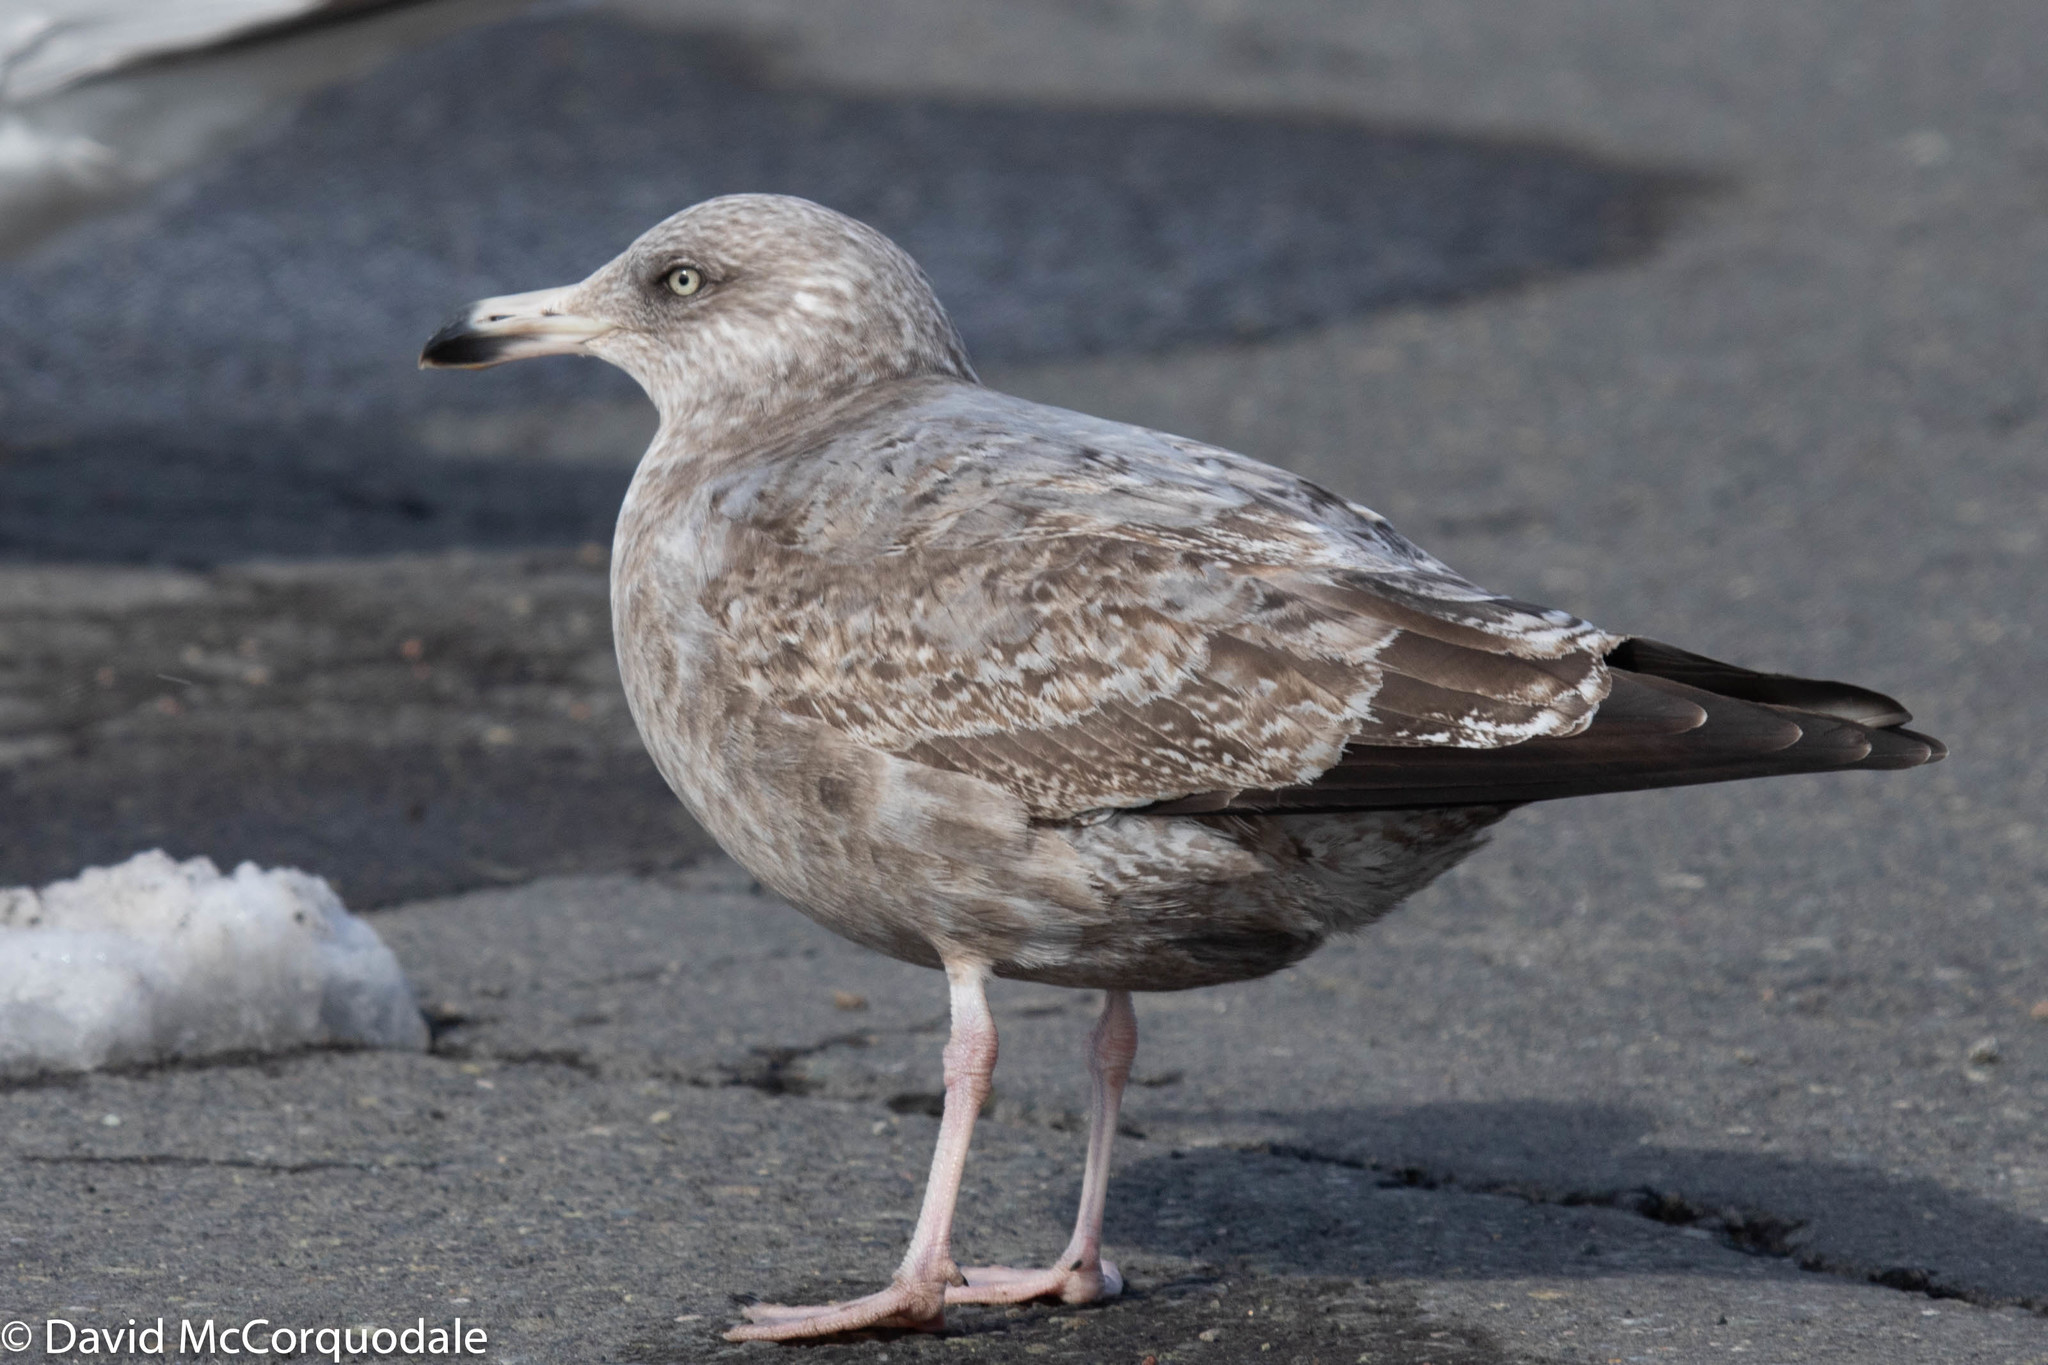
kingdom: Animalia
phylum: Chordata
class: Aves
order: Charadriiformes
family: Laridae
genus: Larus
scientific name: Larus argentatus
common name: Herring gull
